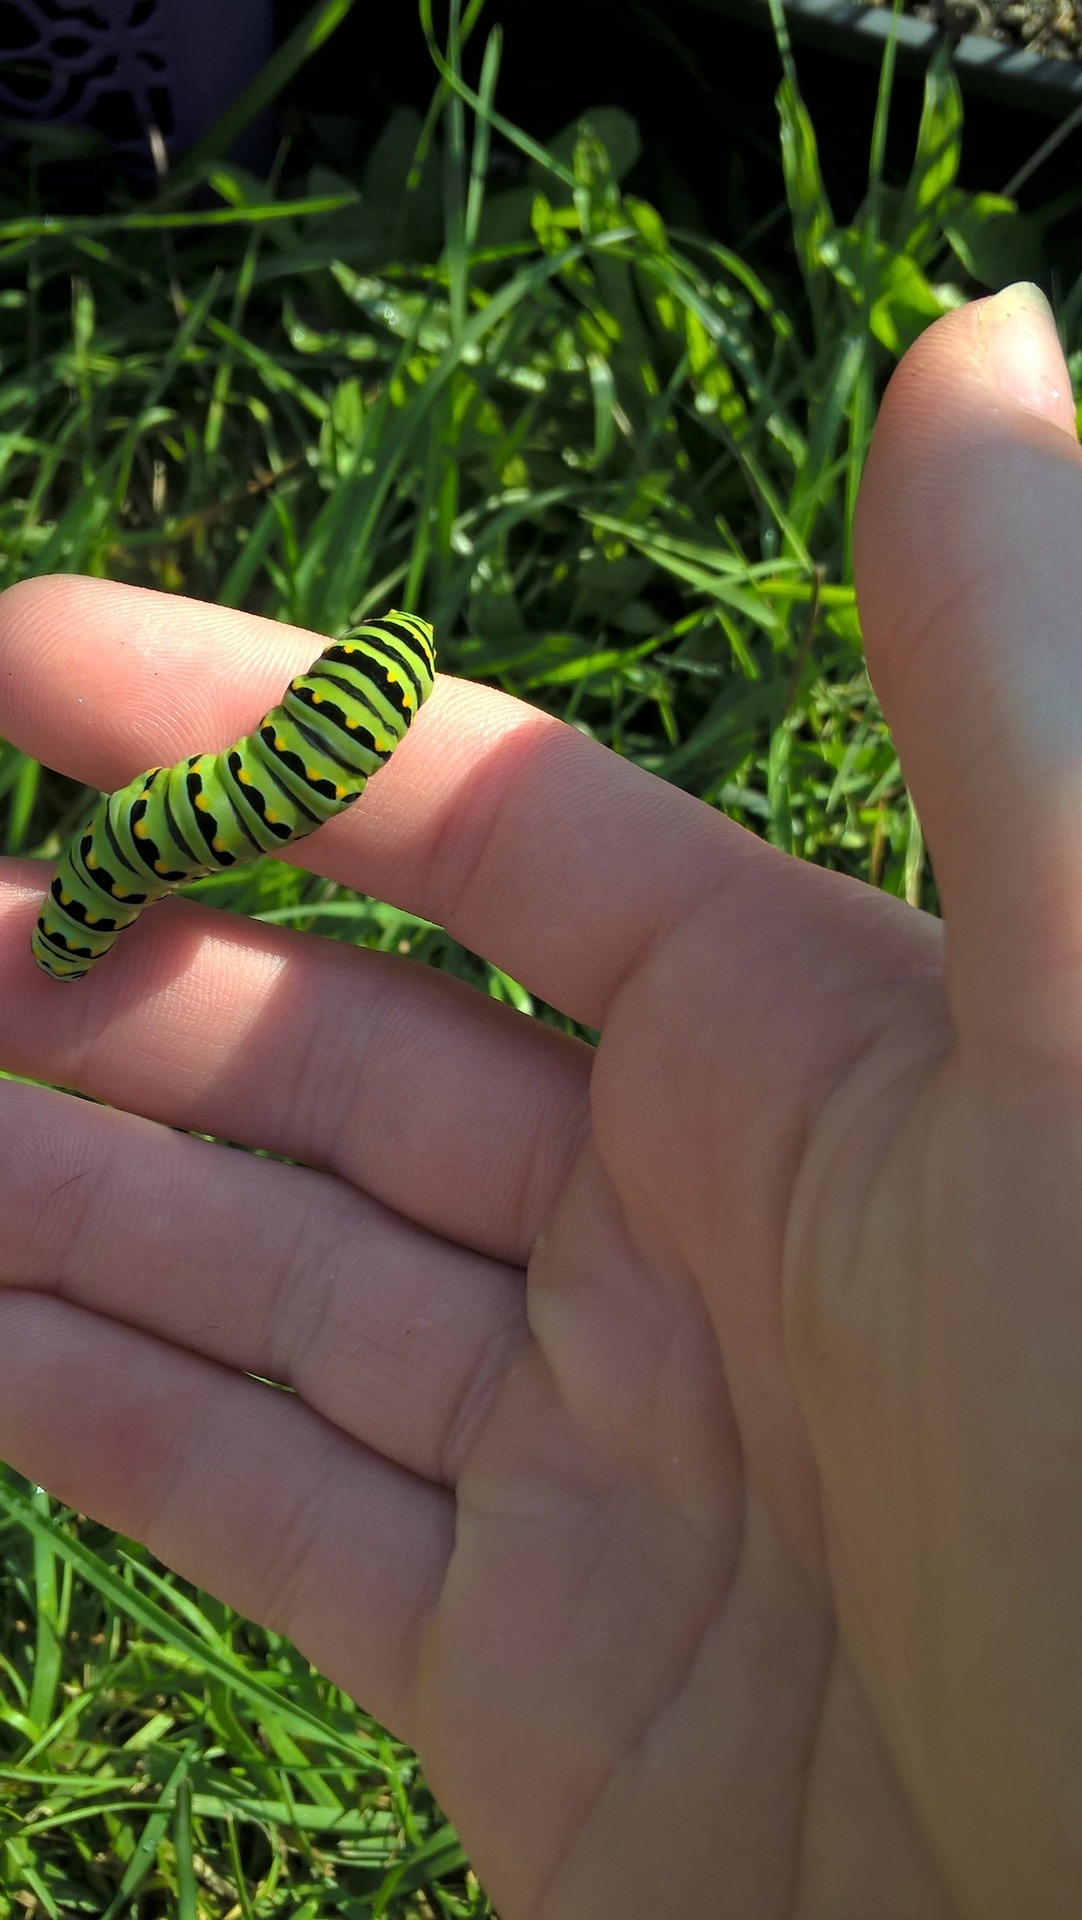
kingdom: Animalia
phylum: Arthropoda
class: Insecta
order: Lepidoptera
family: Papilionidae
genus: Papilio
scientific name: Papilio polyxenes
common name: Black swallowtail
